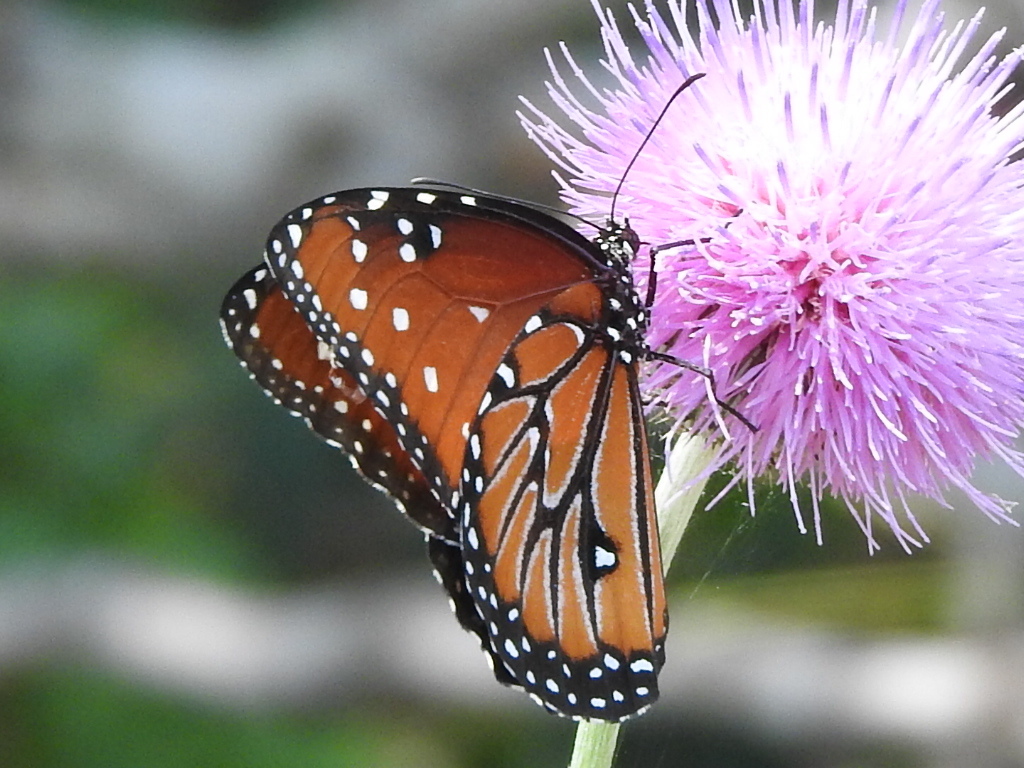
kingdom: Animalia
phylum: Arthropoda
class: Insecta
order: Lepidoptera
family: Nymphalidae
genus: Danaus
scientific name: Danaus gilippus
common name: Queen
